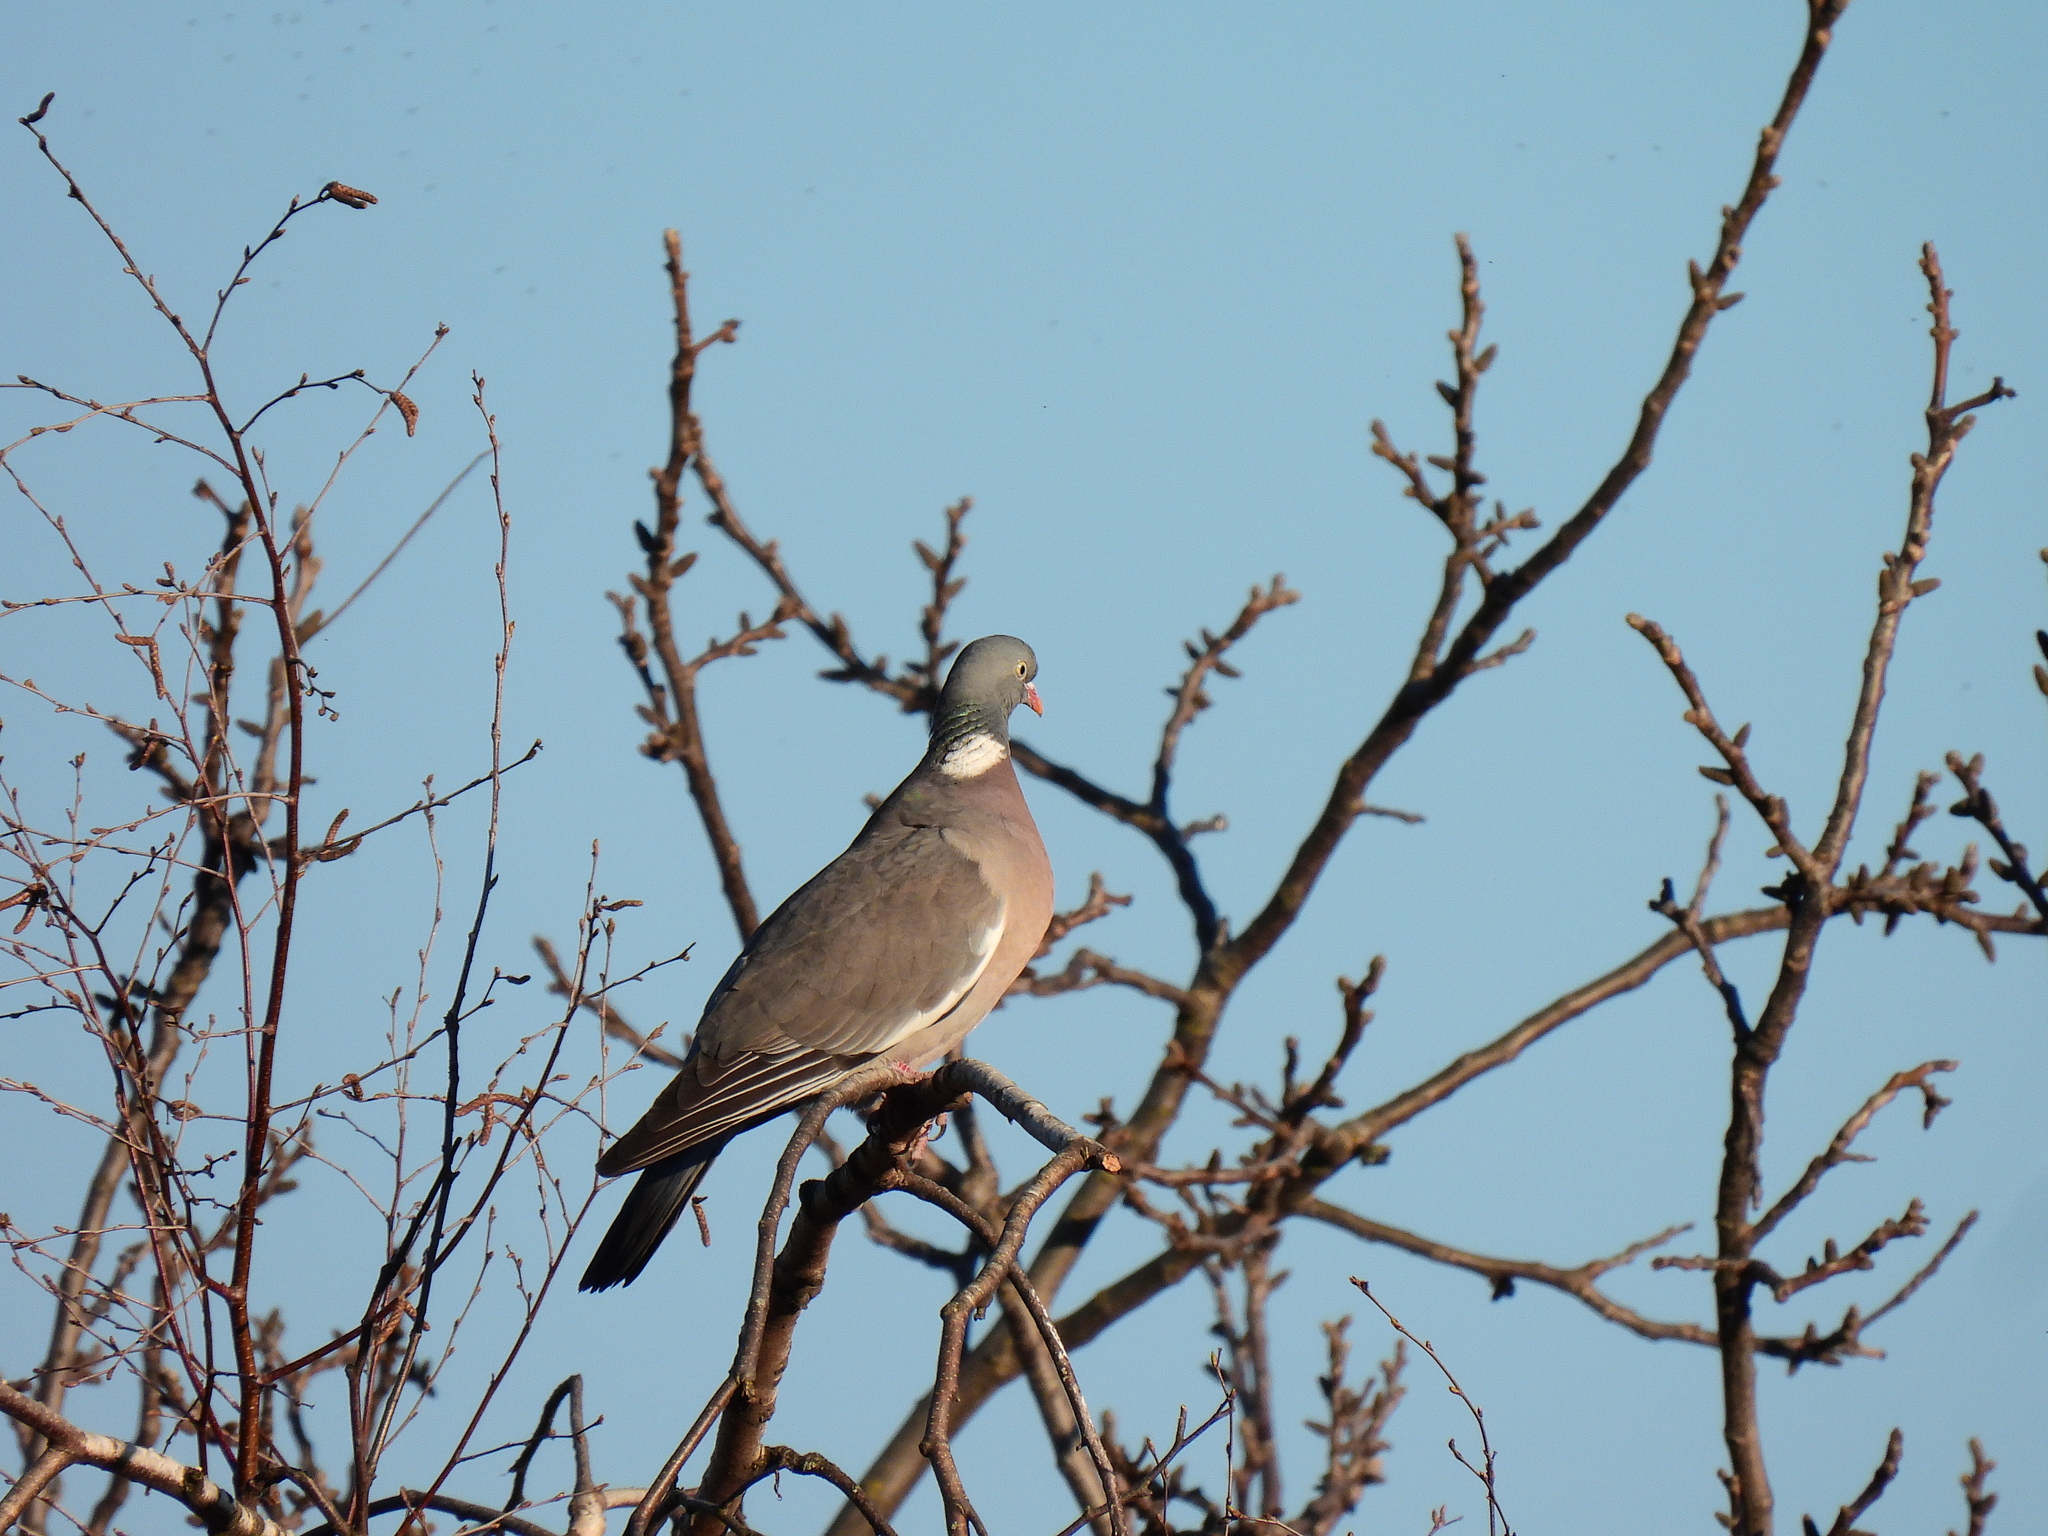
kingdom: Animalia
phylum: Chordata
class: Aves
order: Columbiformes
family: Columbidae
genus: Columba
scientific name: Columba palumbus
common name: Common wood pigeon
